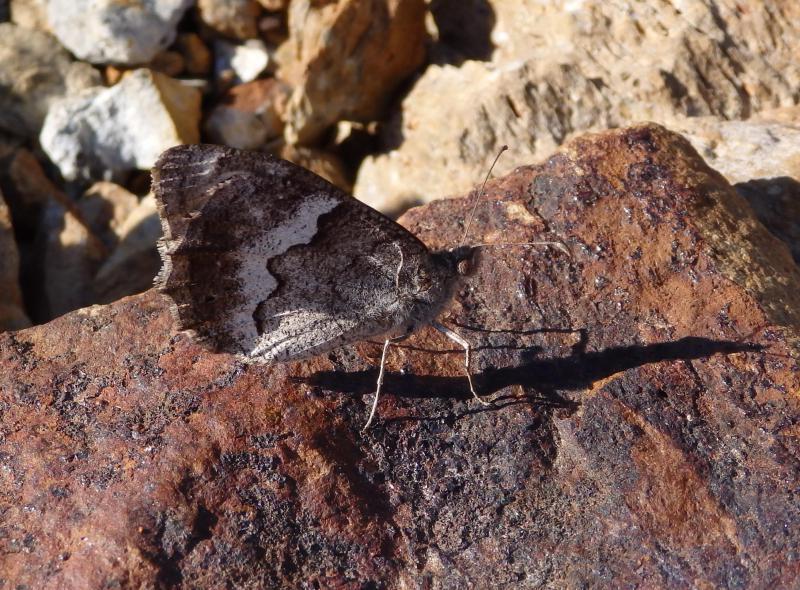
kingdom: Animalia
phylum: Arthropoda
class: Insecta
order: Lepidoptera
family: Nymphalidae
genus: Hipparchia
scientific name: Hipparchia statilinus
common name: Tree grayling
